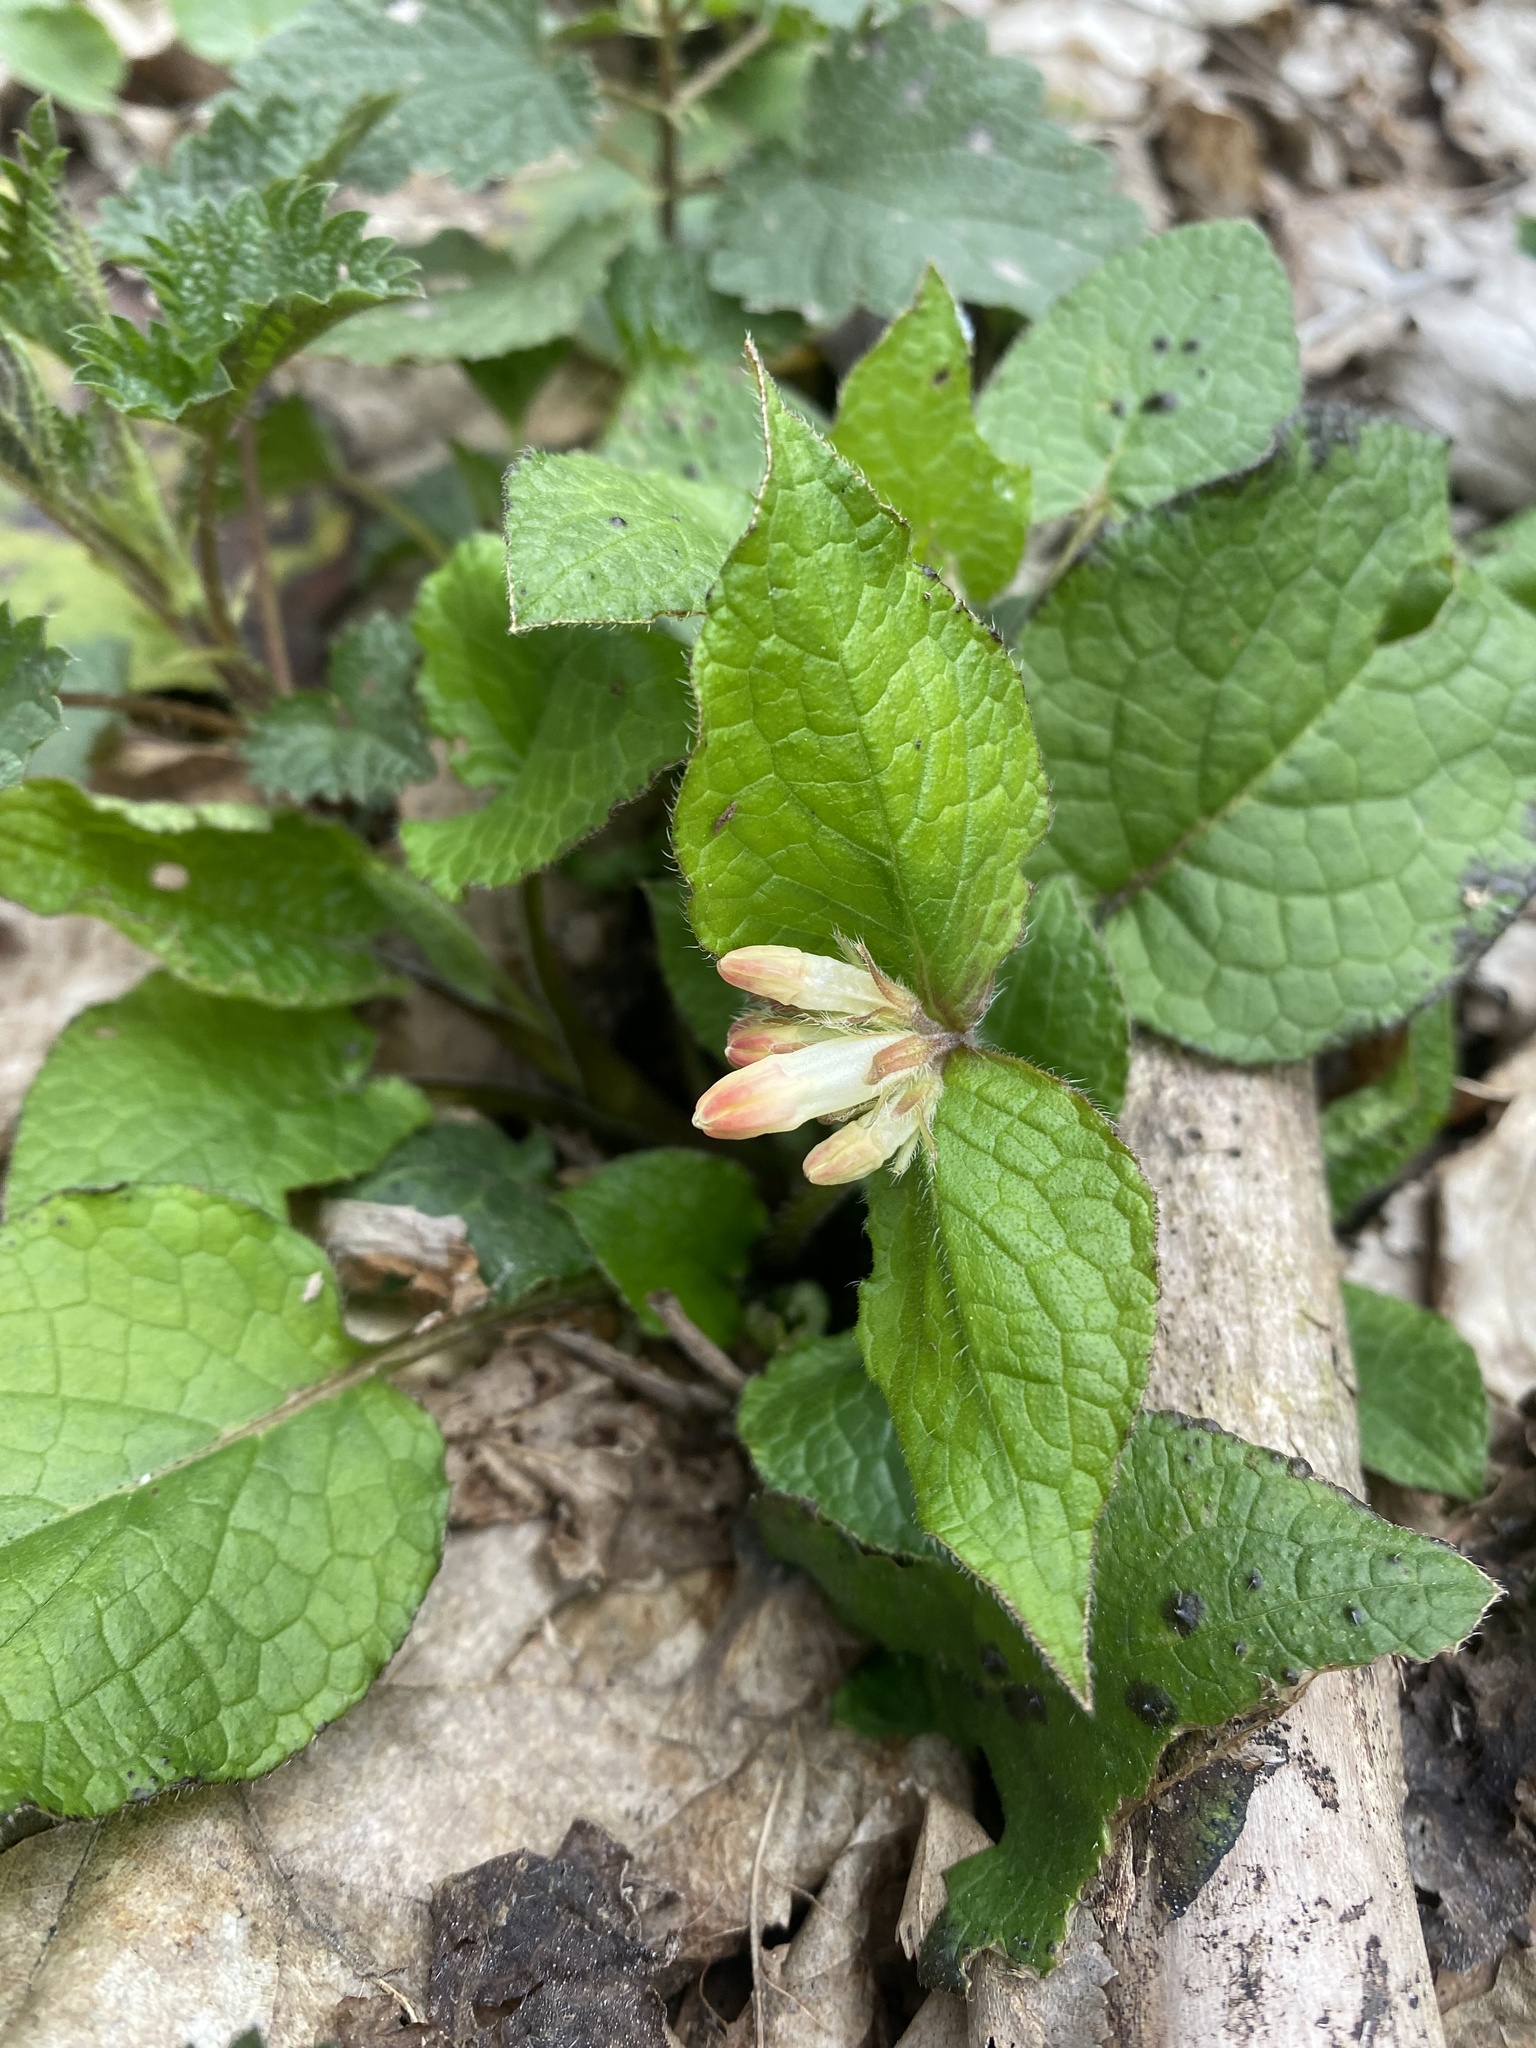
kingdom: Plantae
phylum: Tracheophyta
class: Magnoliopsida
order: Boraginales
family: Boraginaceae
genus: Symphytum
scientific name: Symphytum grandiflorum
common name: Creeping comfrey
